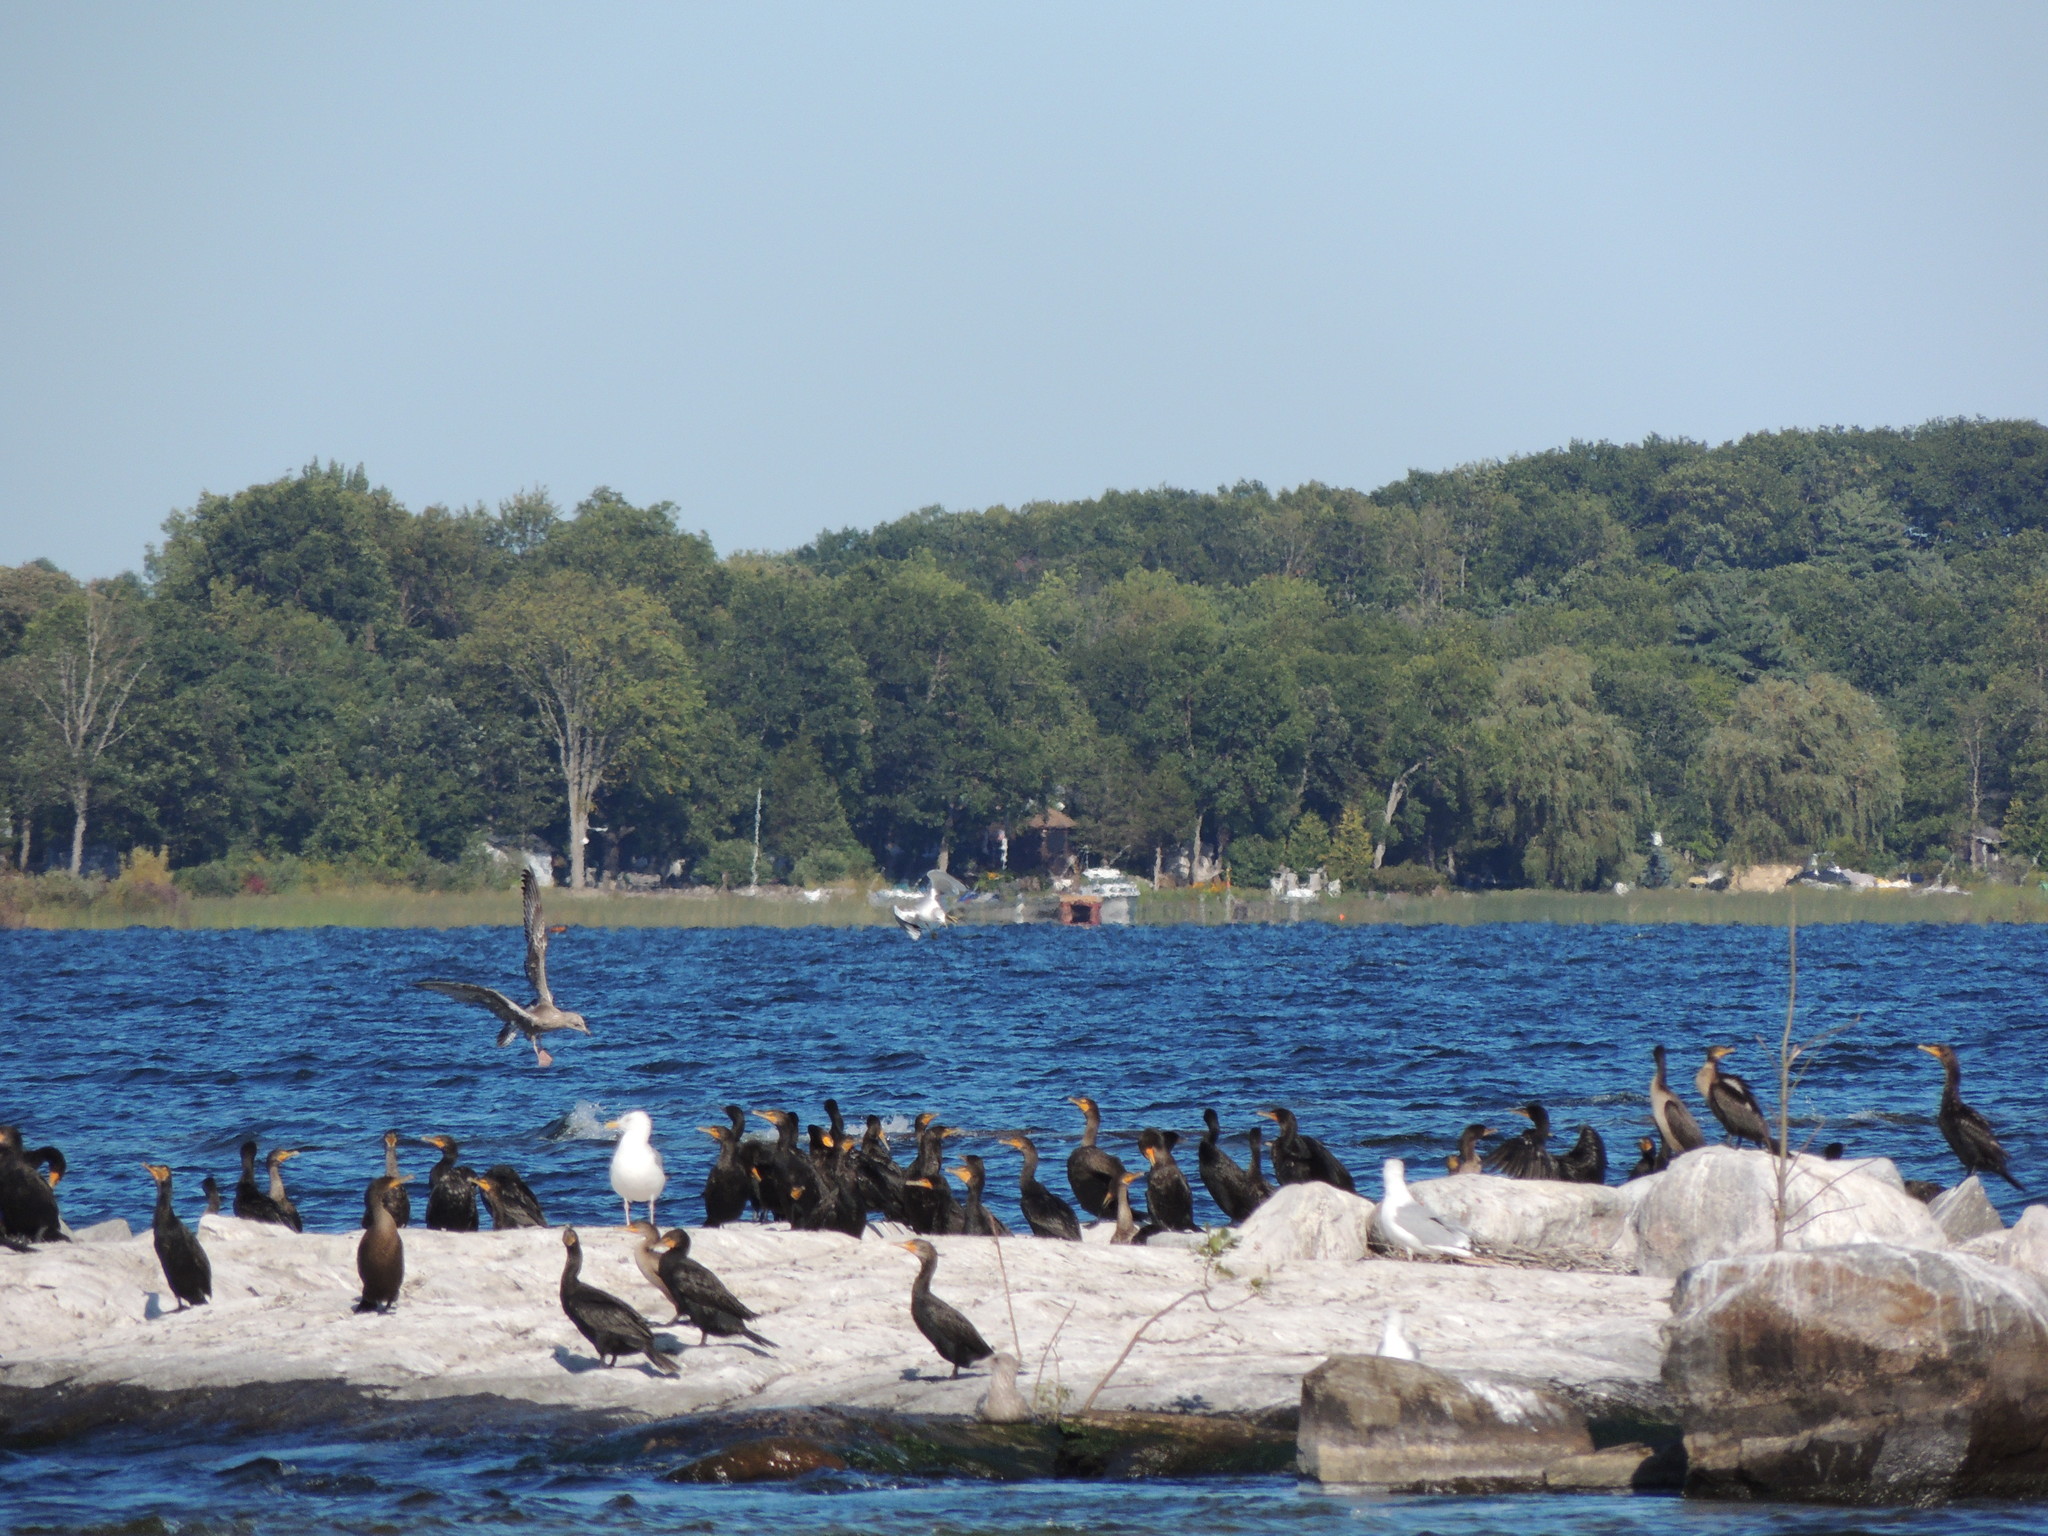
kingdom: Animalia
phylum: Chordata
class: Aves
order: Charadriiformes
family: Laridae
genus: Larus
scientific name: Larus argentatus
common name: Herring gull
